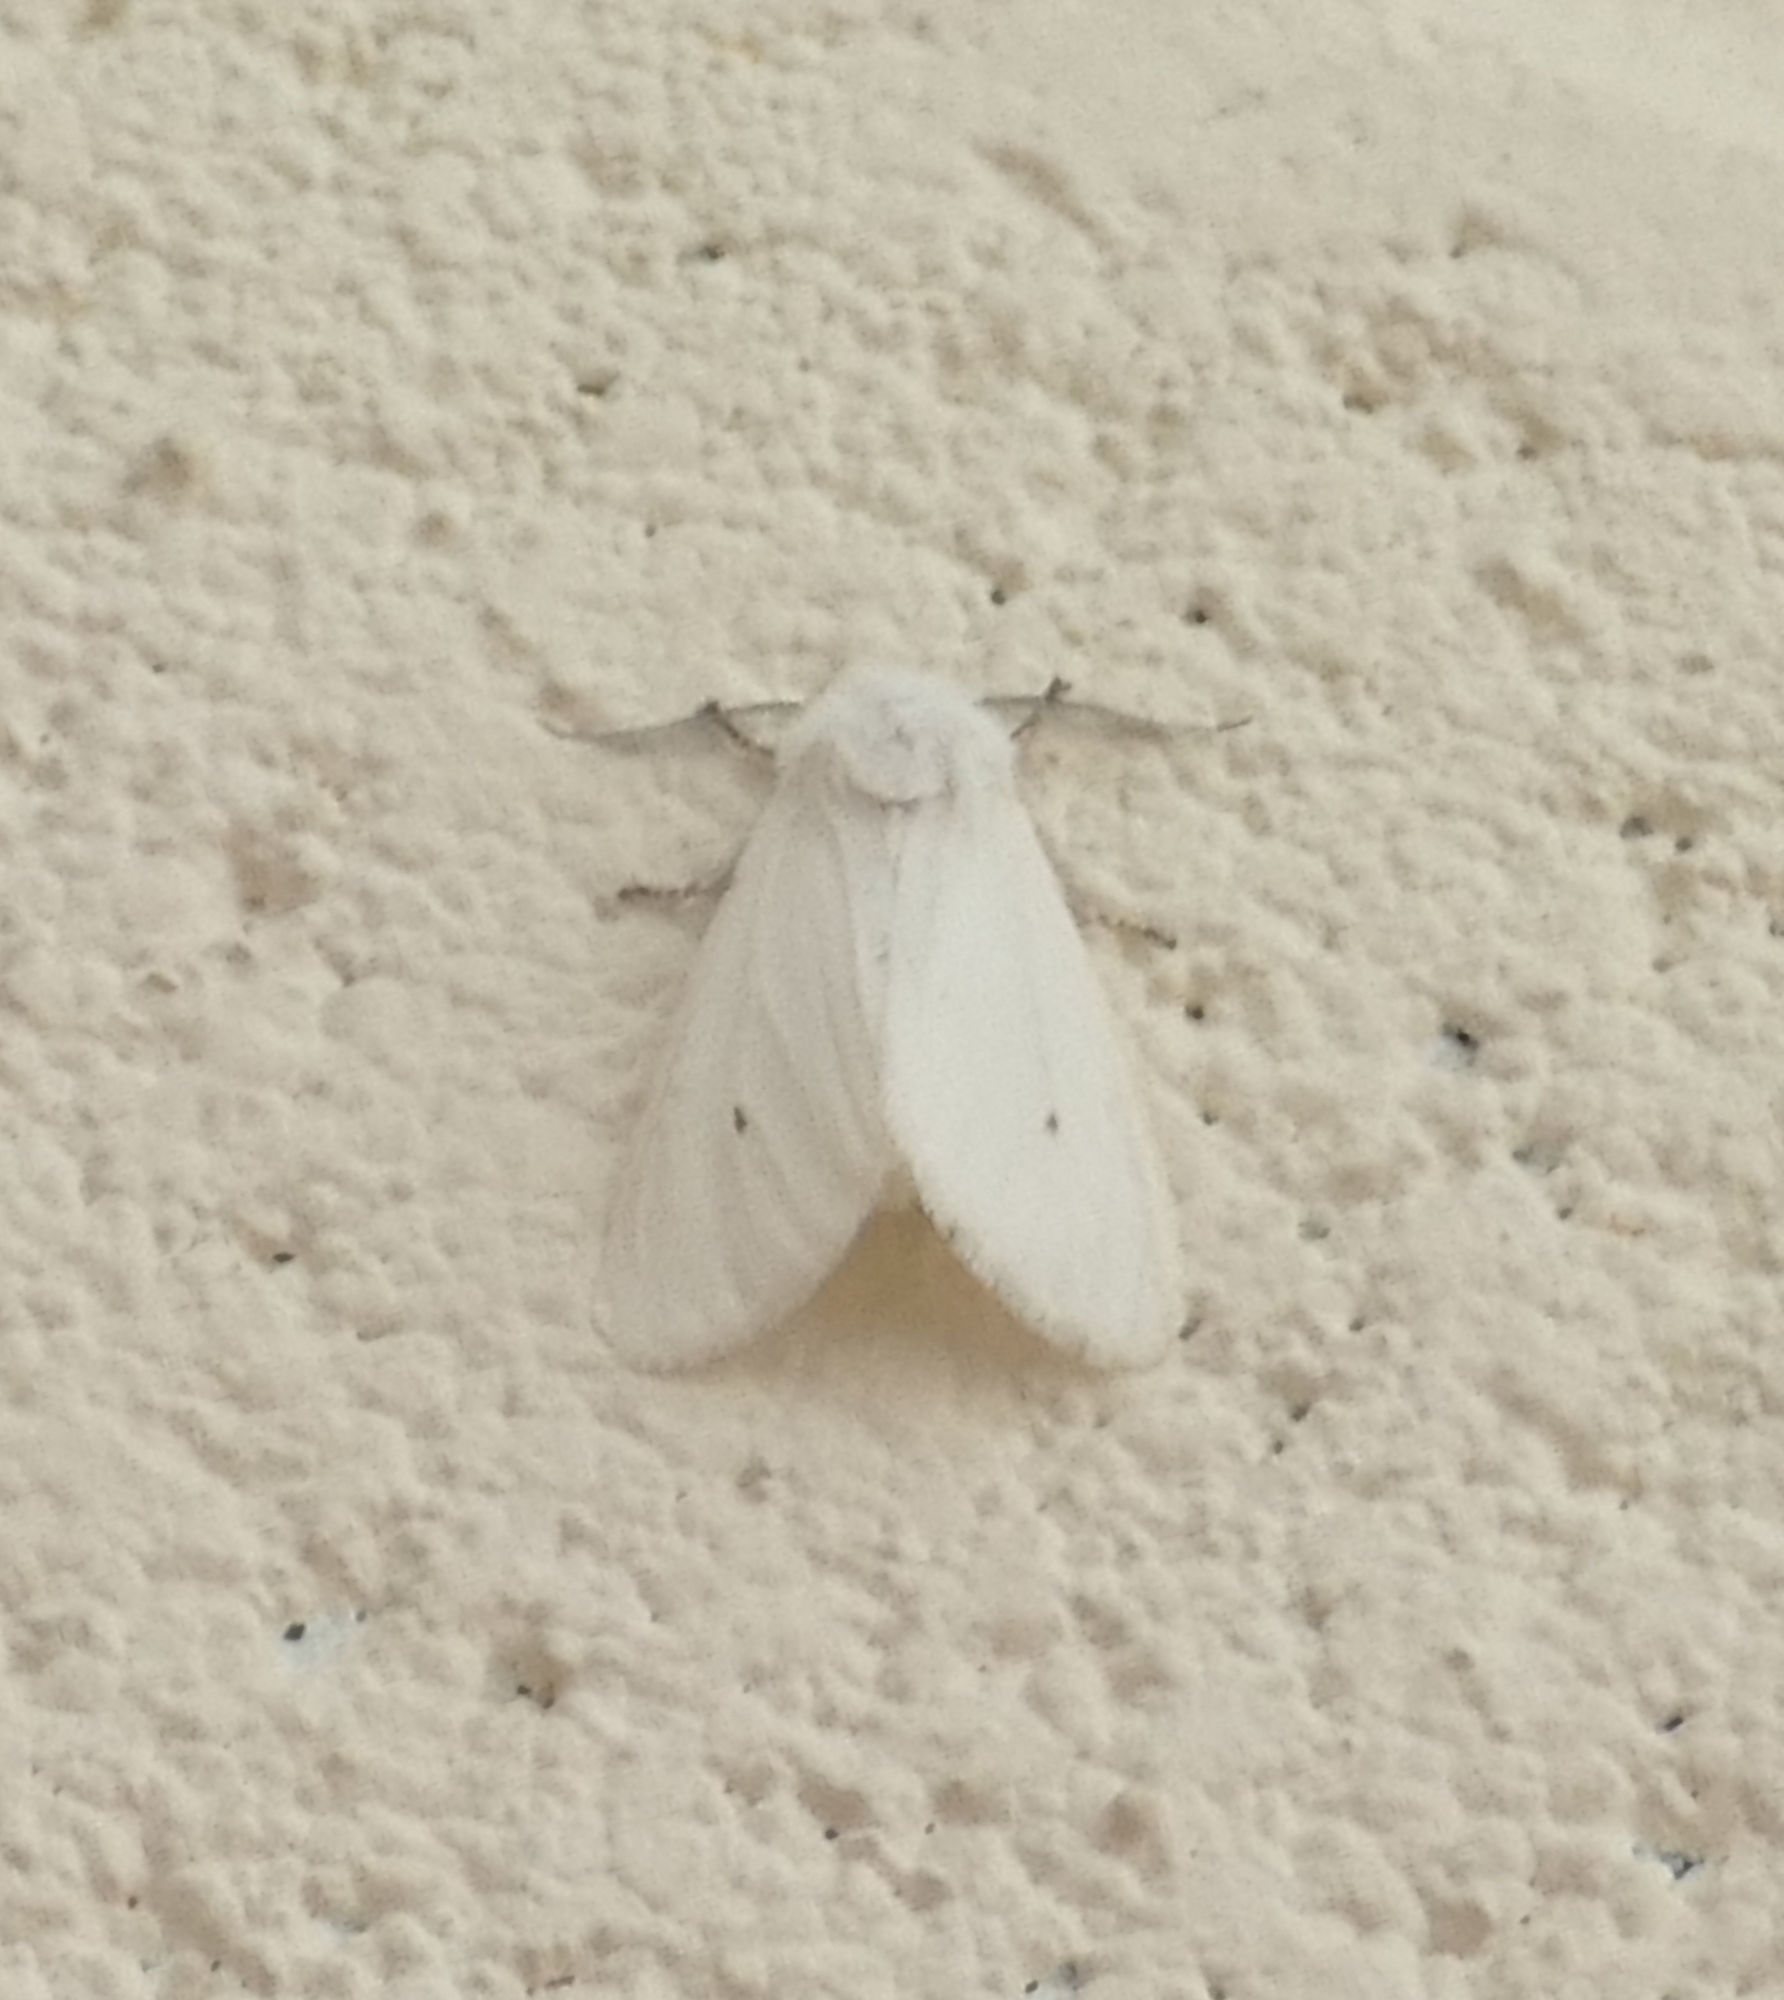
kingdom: Animalia
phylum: Arthropoda
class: Insecta
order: Lepidoptera
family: Erebidae
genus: Spilosoma
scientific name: Spilosoma virginica
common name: Virginia tiger moth
